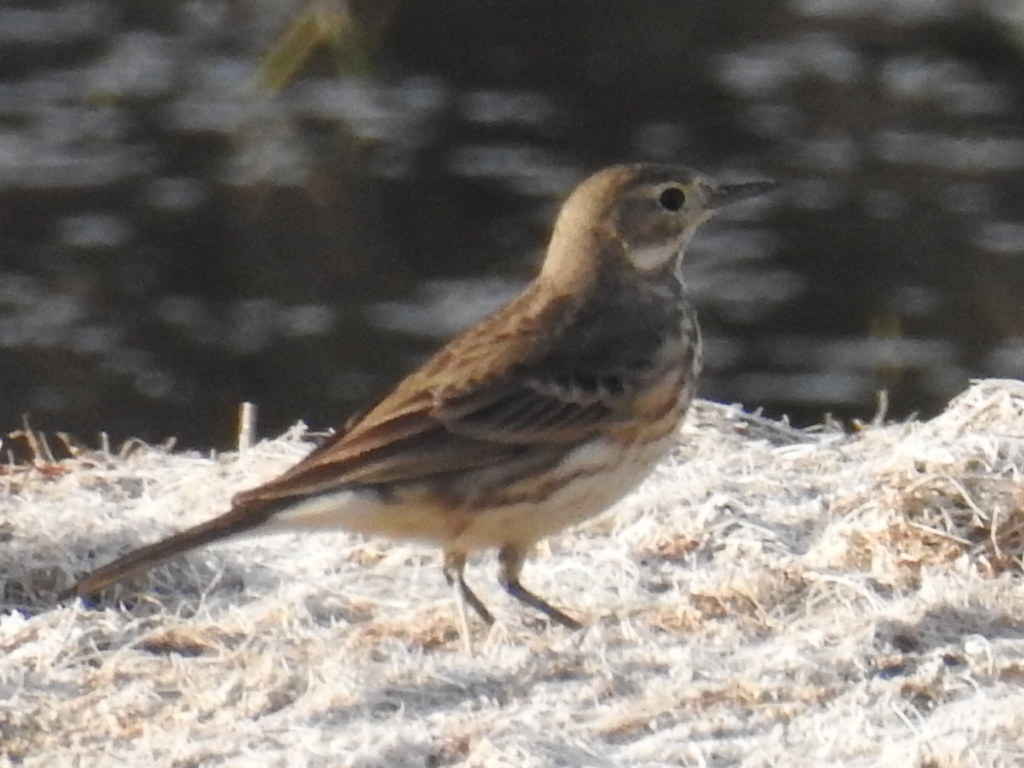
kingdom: Animalia
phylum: Chordata
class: Aves
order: Passeriformes
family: Motacillidae
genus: Anthus
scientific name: Anthus rubescens
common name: Buff-bellied pipit
